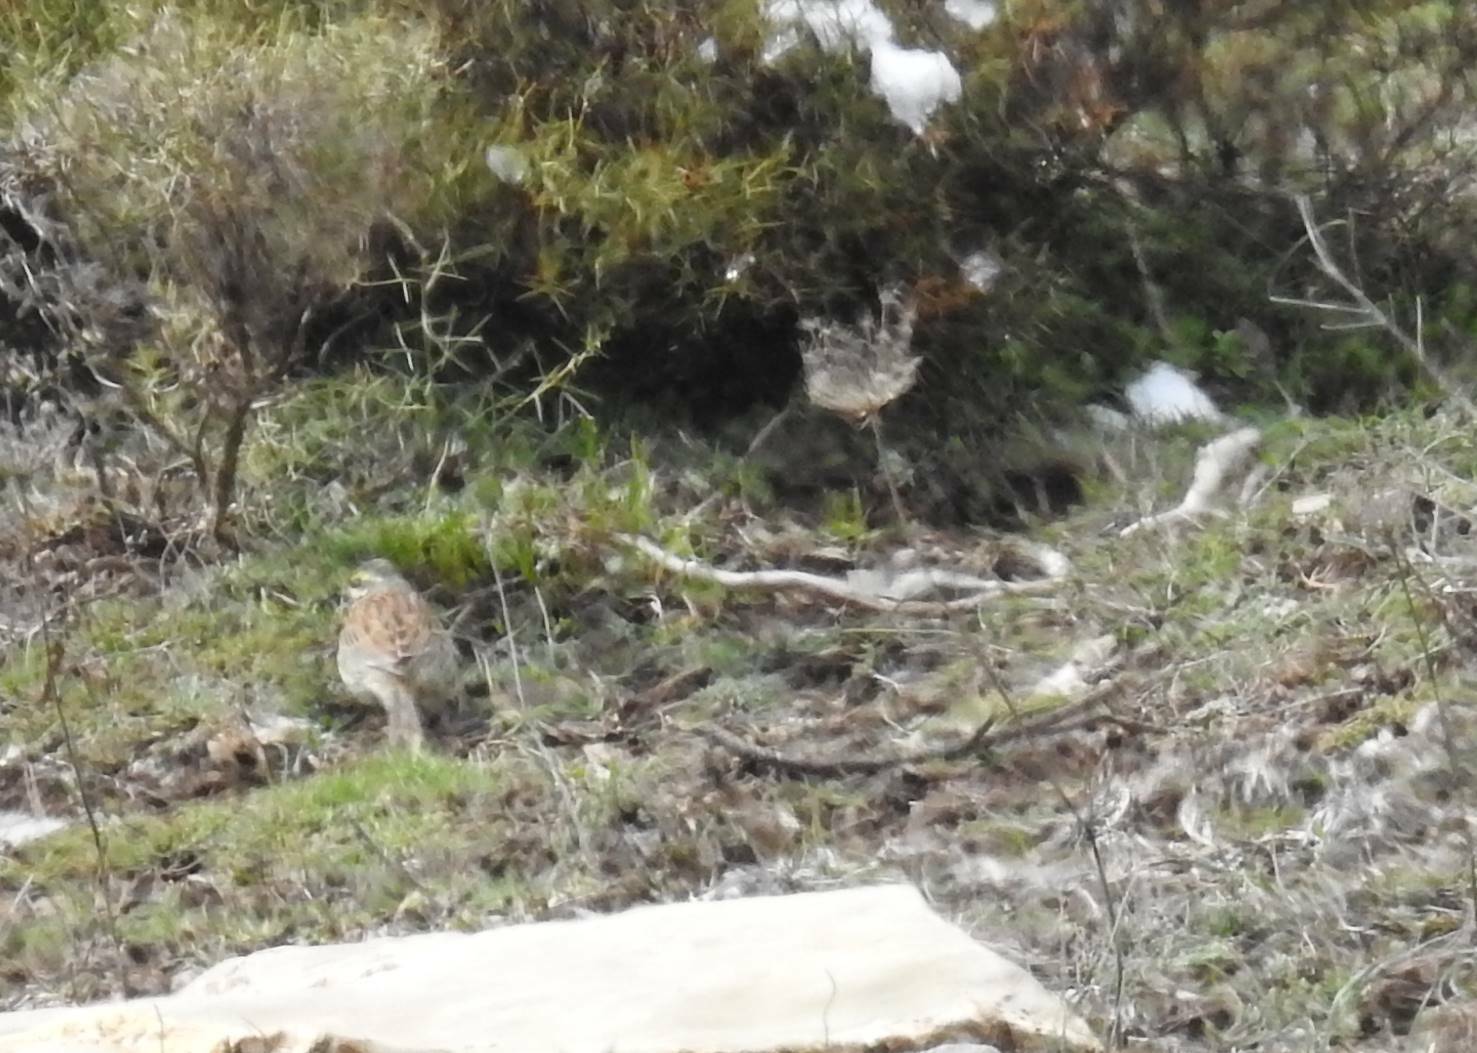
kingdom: Animalia
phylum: Chordata
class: Aves
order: Passeriformes
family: Emberizidae
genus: Emberiza
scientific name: Emberiza cirlus
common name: Cirl bunting
